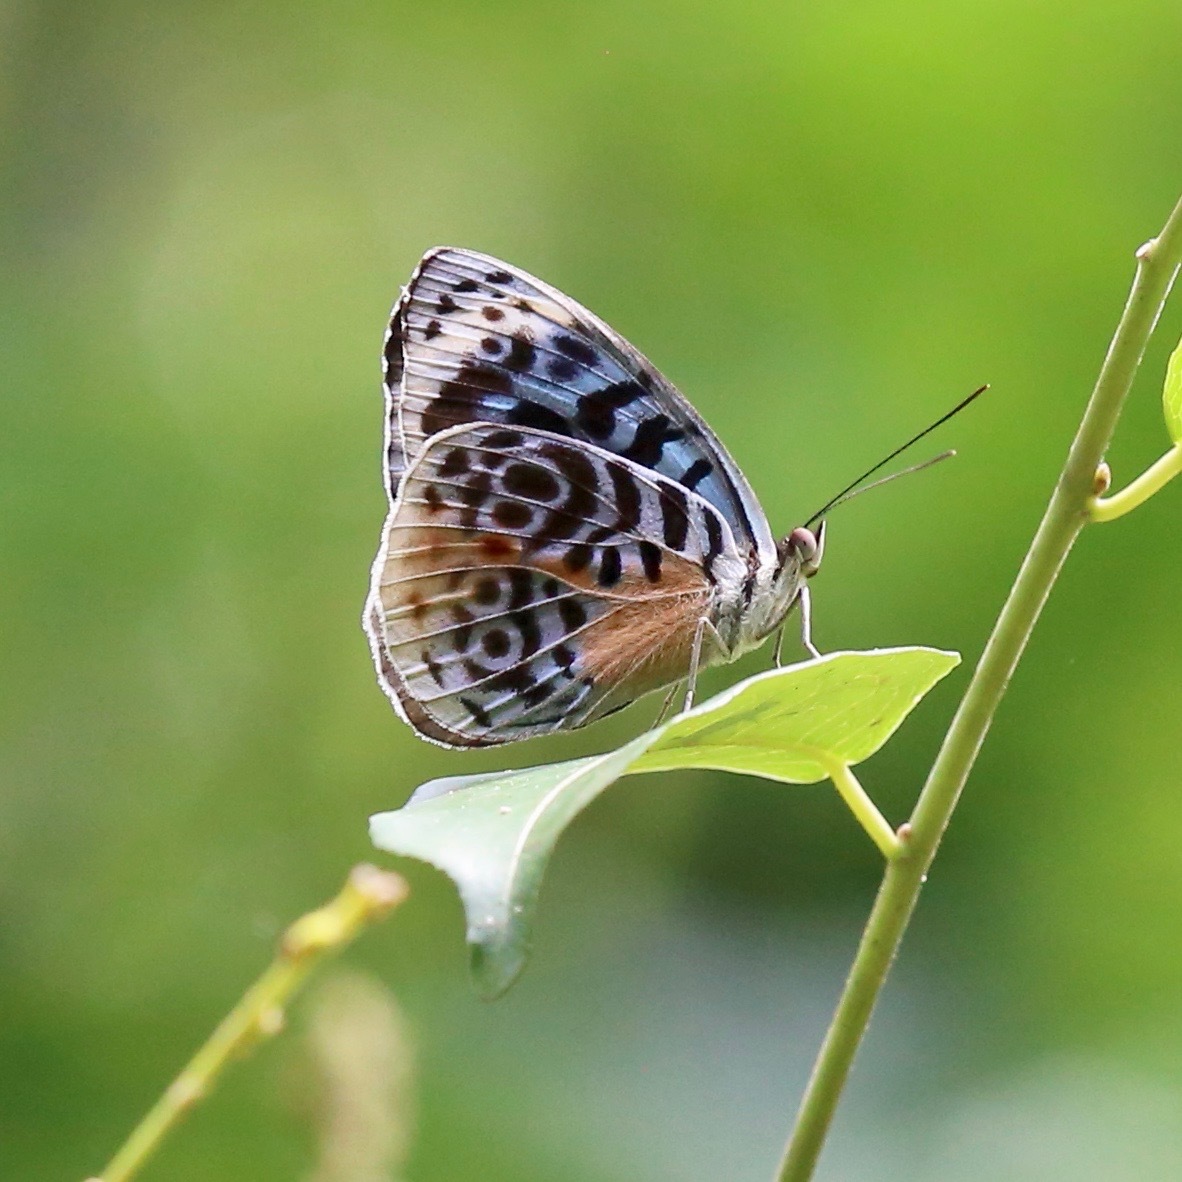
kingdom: Animalia
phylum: Arthropoda
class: Insecta
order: Lepidoptera
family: Nymphalidae
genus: Eunica
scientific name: Eunica chlororhoa
